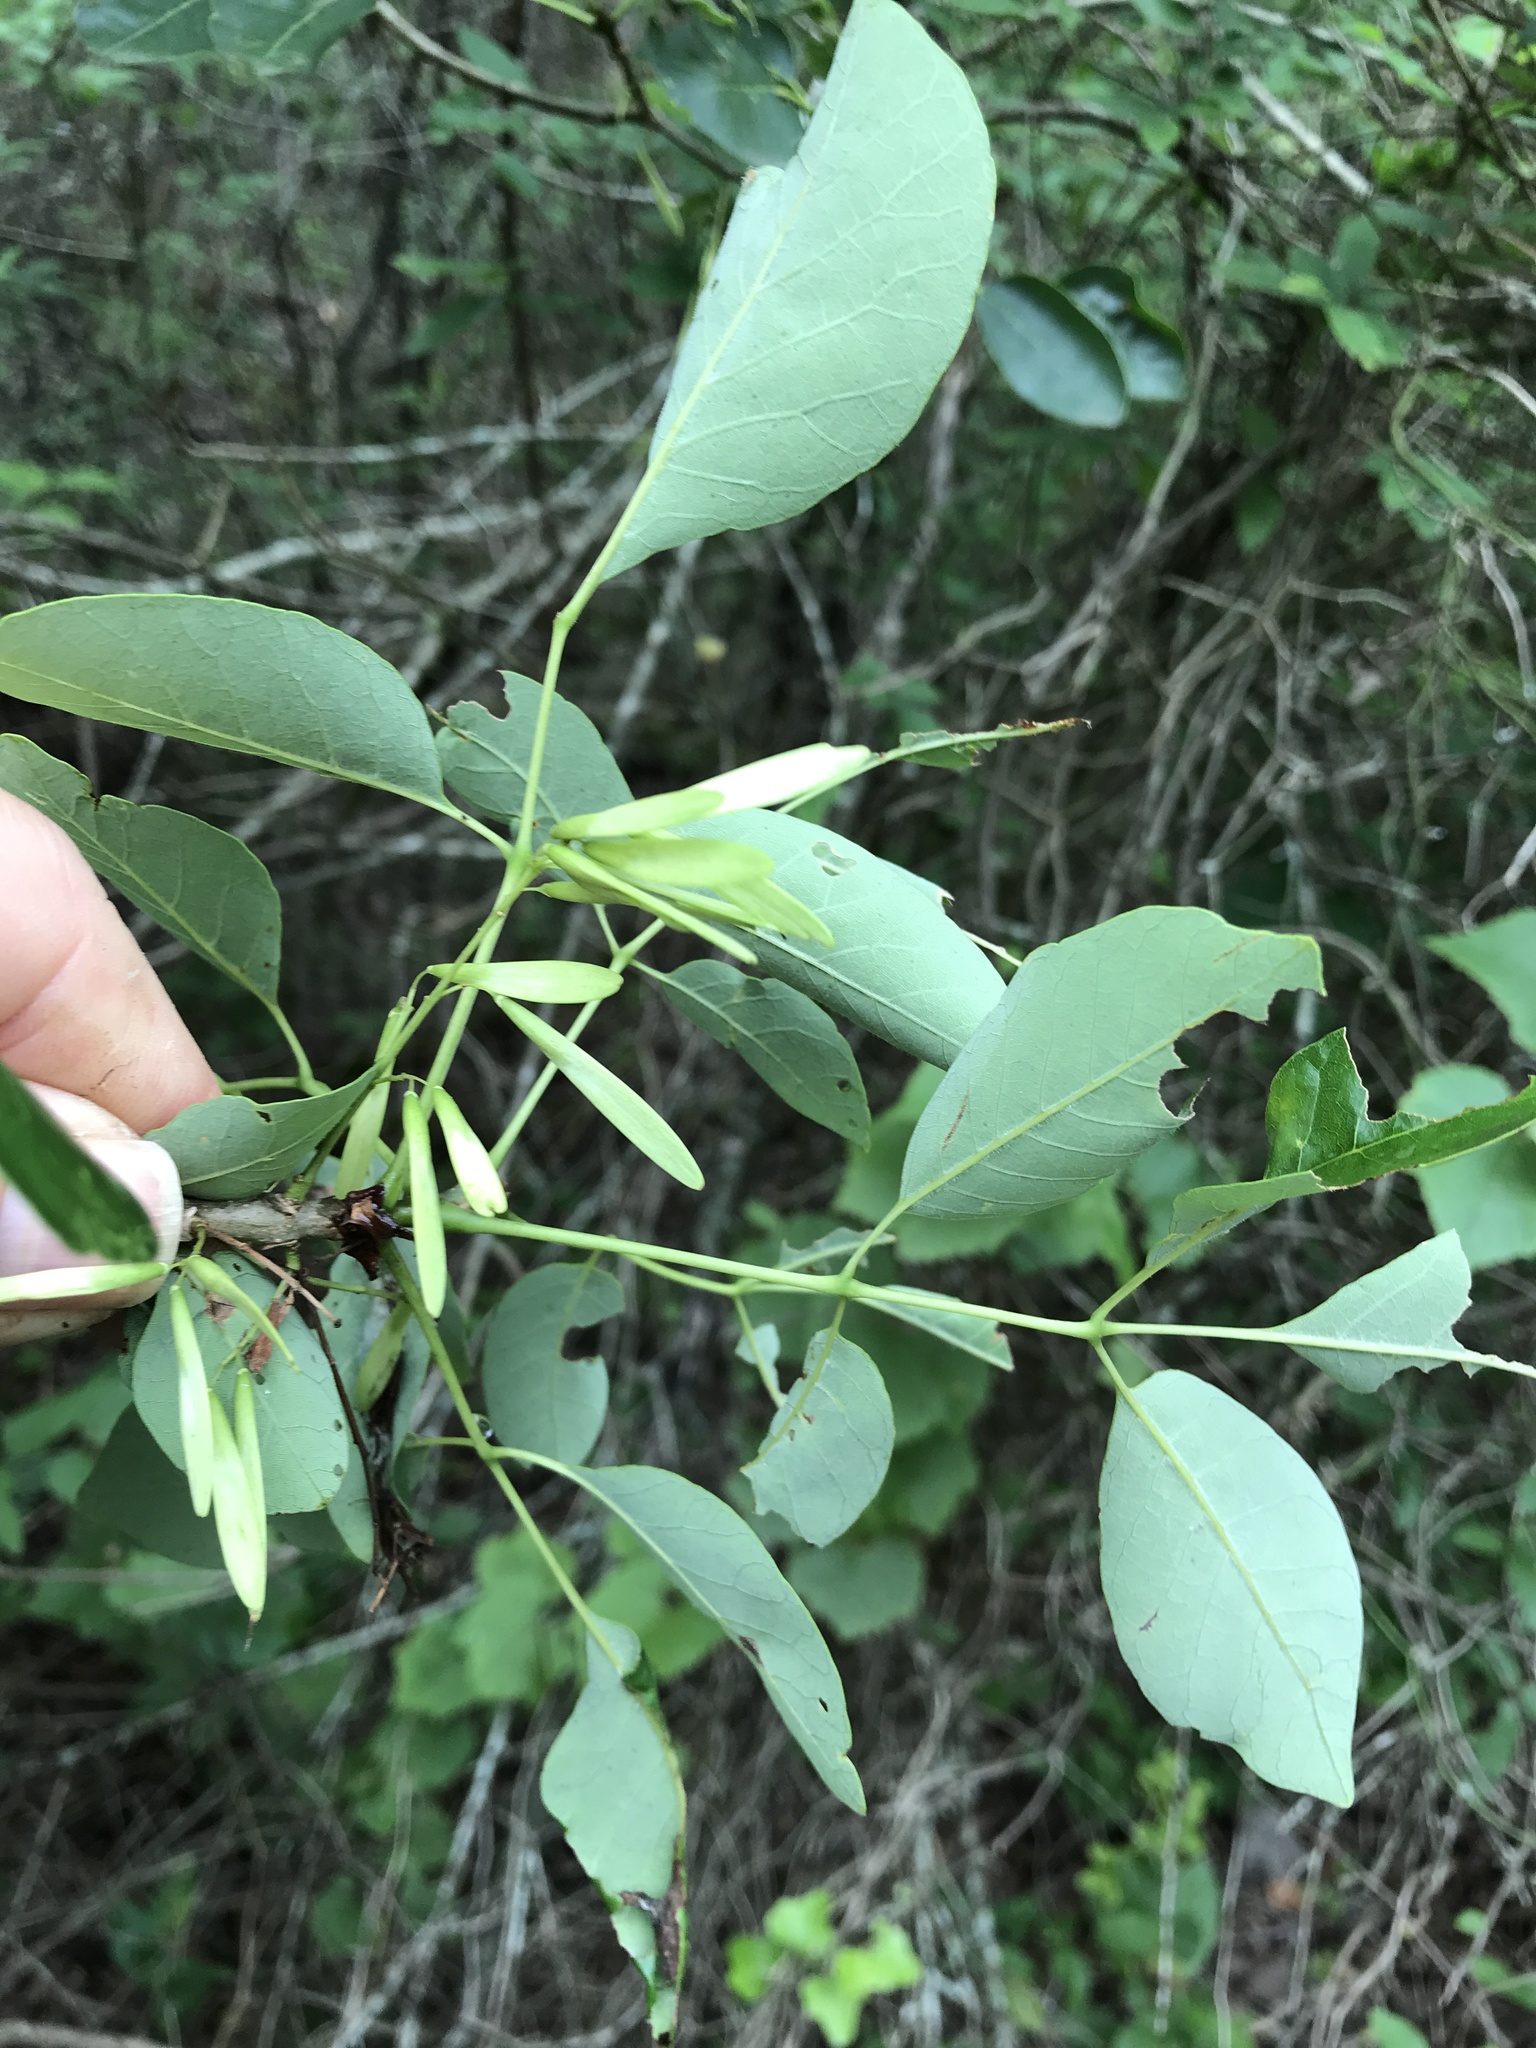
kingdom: Plantae
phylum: Tracheophyta
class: Magnoliopsida
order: Lamiales
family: Oleaceae
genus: Fraxinus
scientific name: Fraxinus albicans
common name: Texas ash
